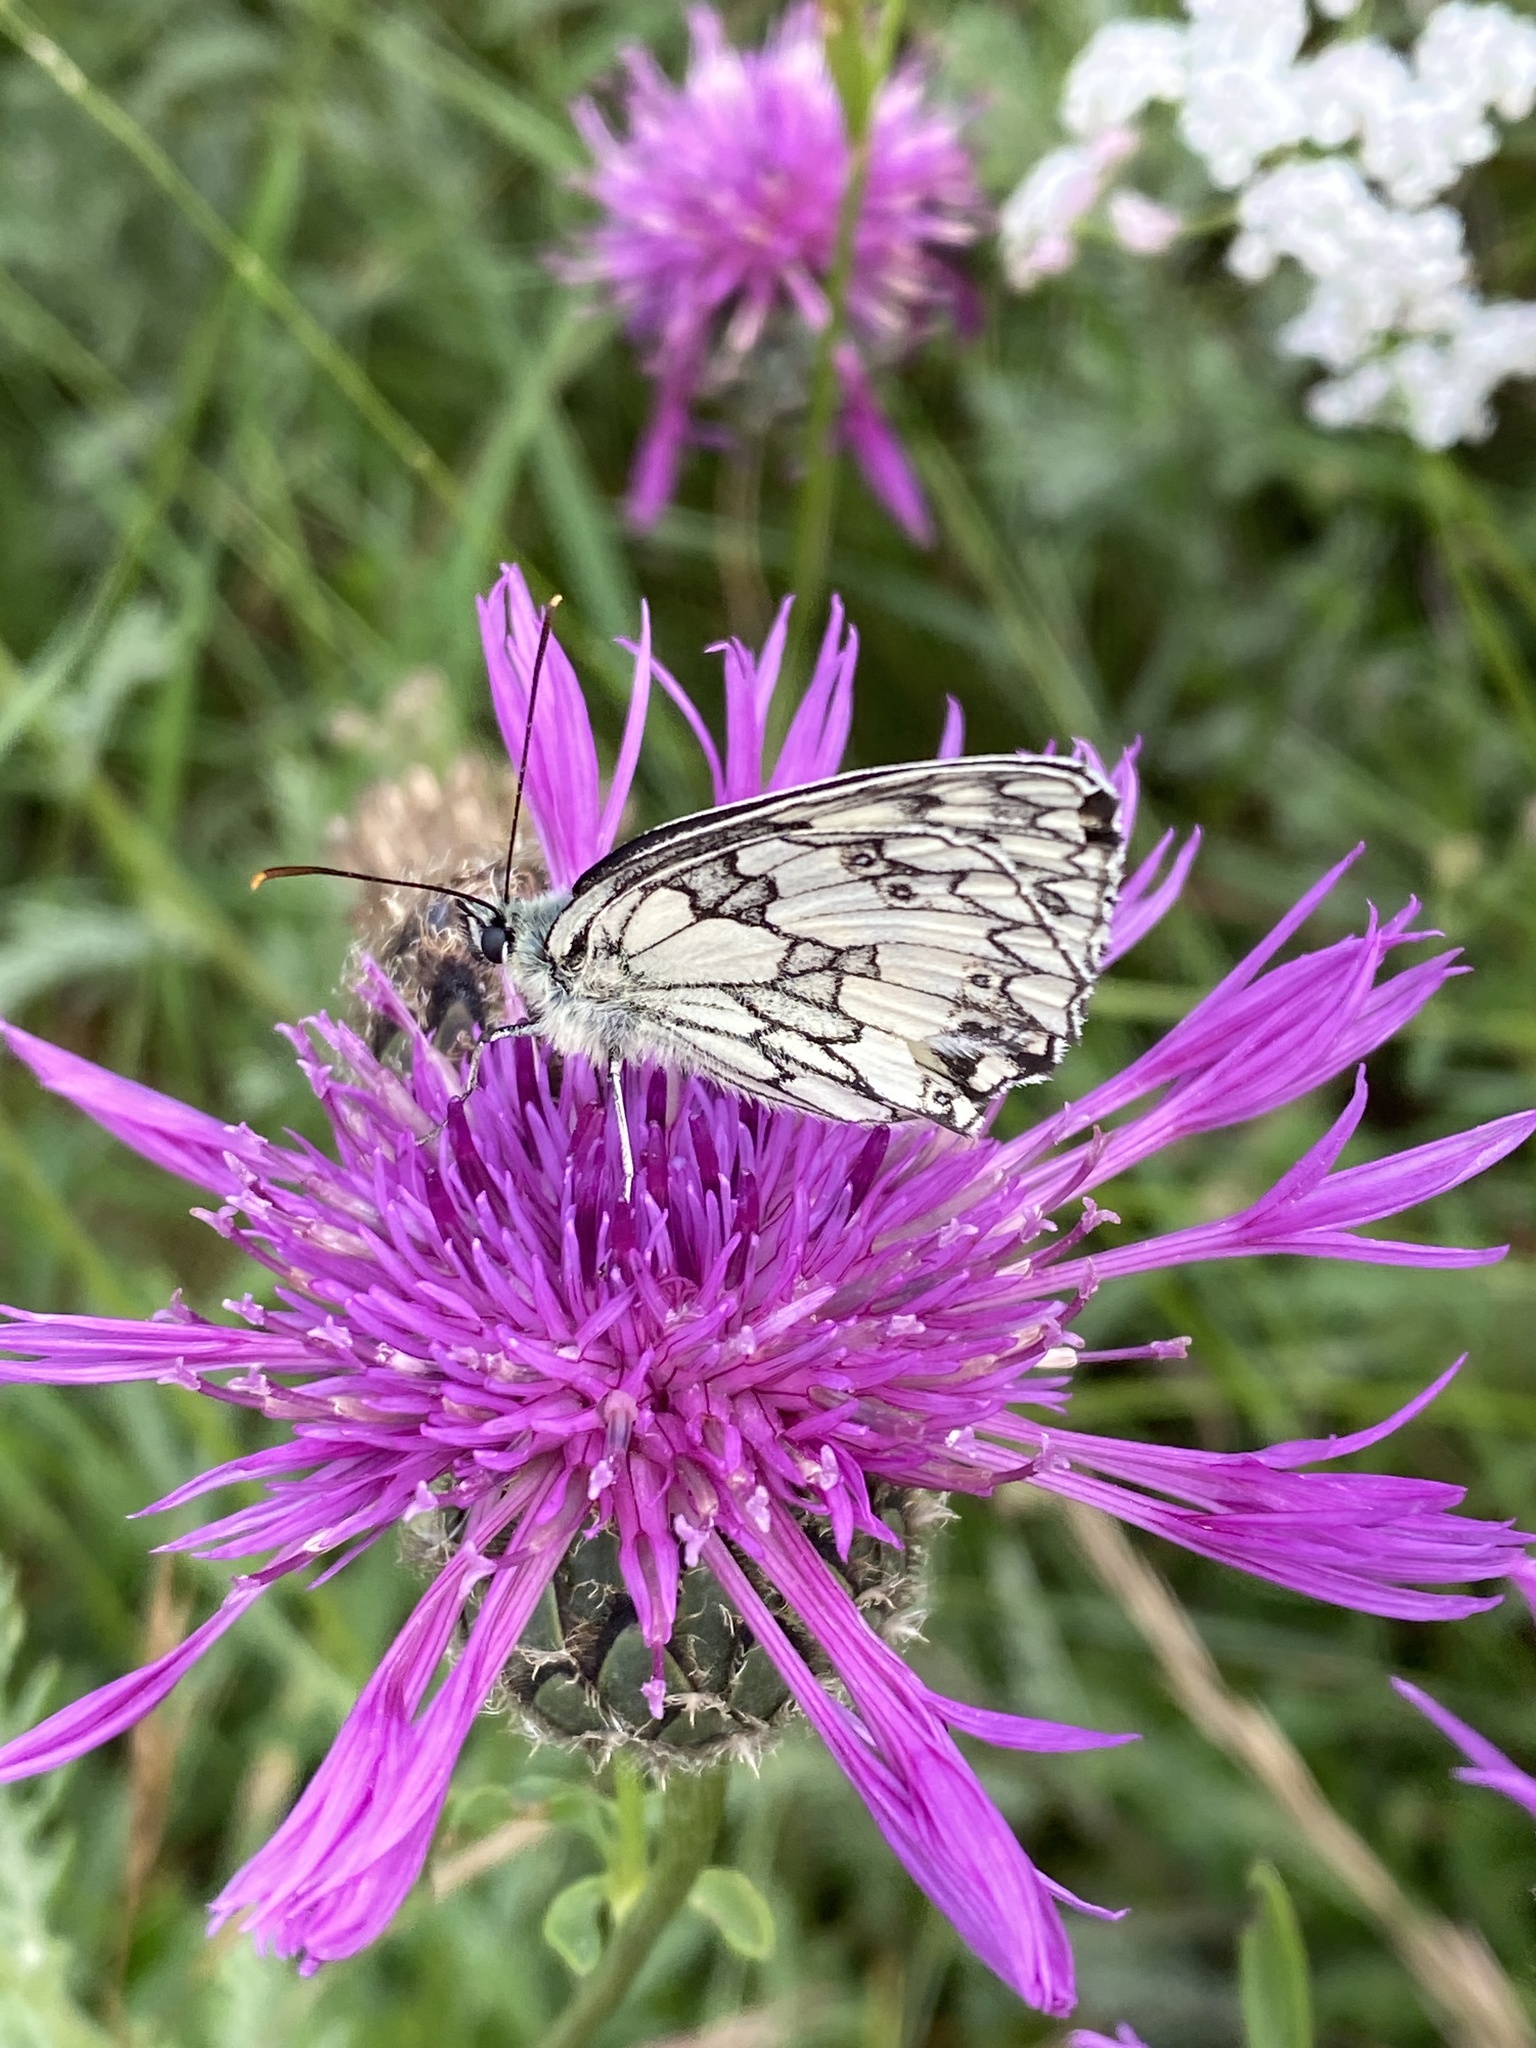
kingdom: Animalia
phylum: Arthropoda
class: Insecta
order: Lepidoptera
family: Nymphalidae
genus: Melanargia
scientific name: Melanargia galathea
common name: Marbled white
